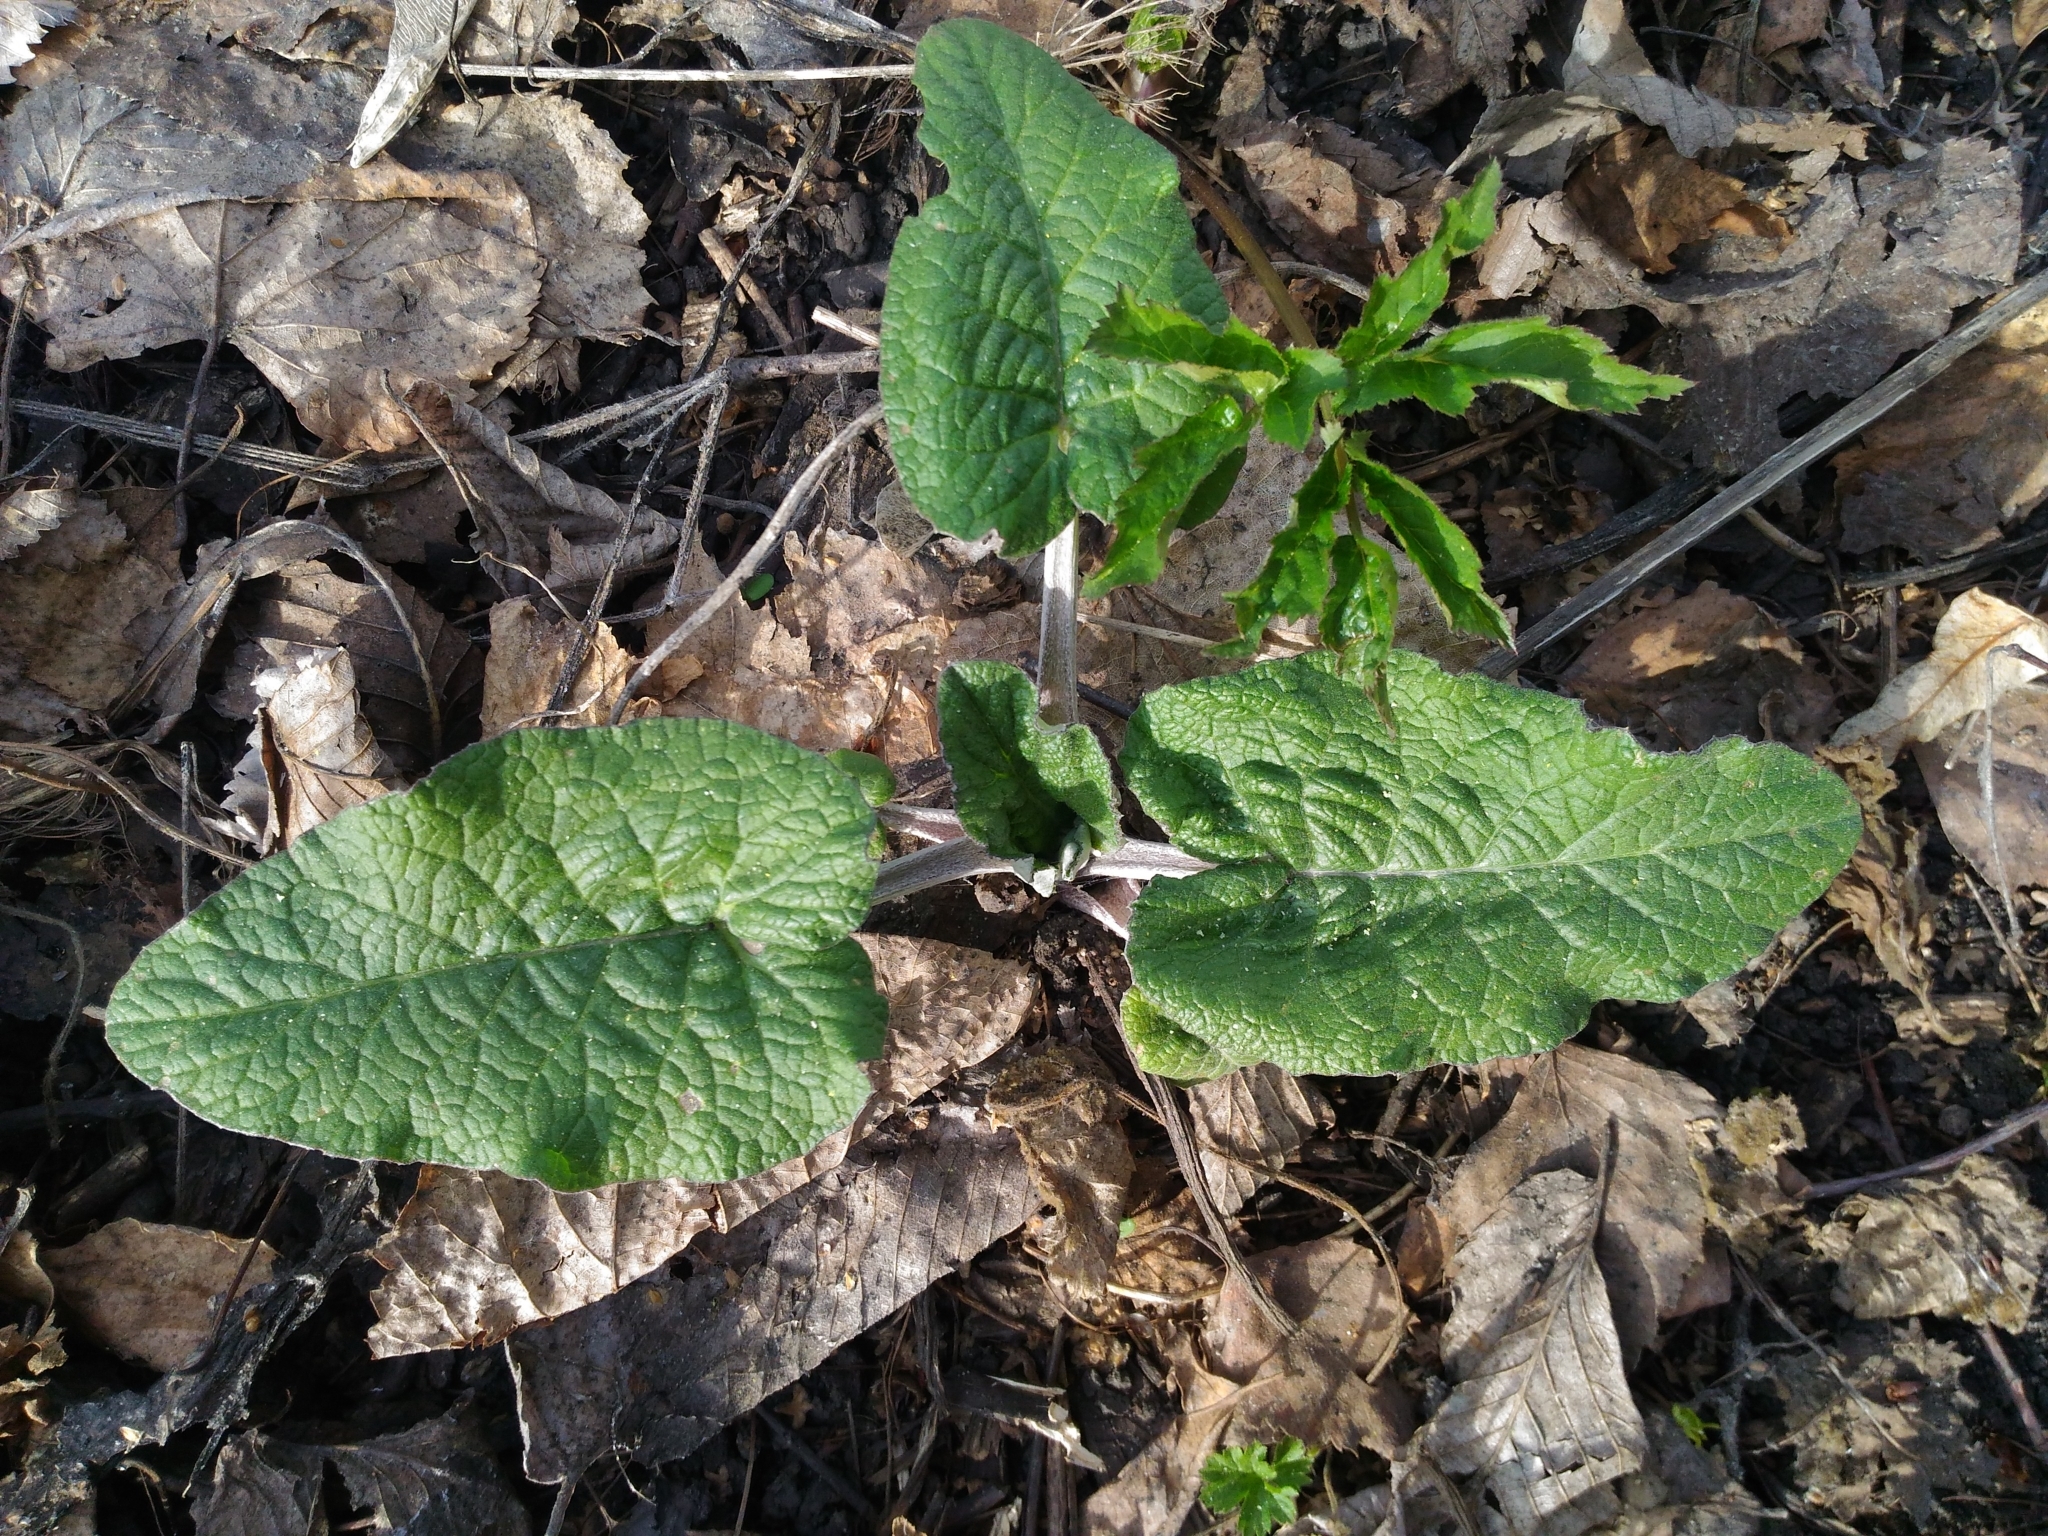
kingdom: Plantae
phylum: Tracheophyta
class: Magnoliopsida
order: Asterales
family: Asteraceae
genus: Arctium
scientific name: Arctium
